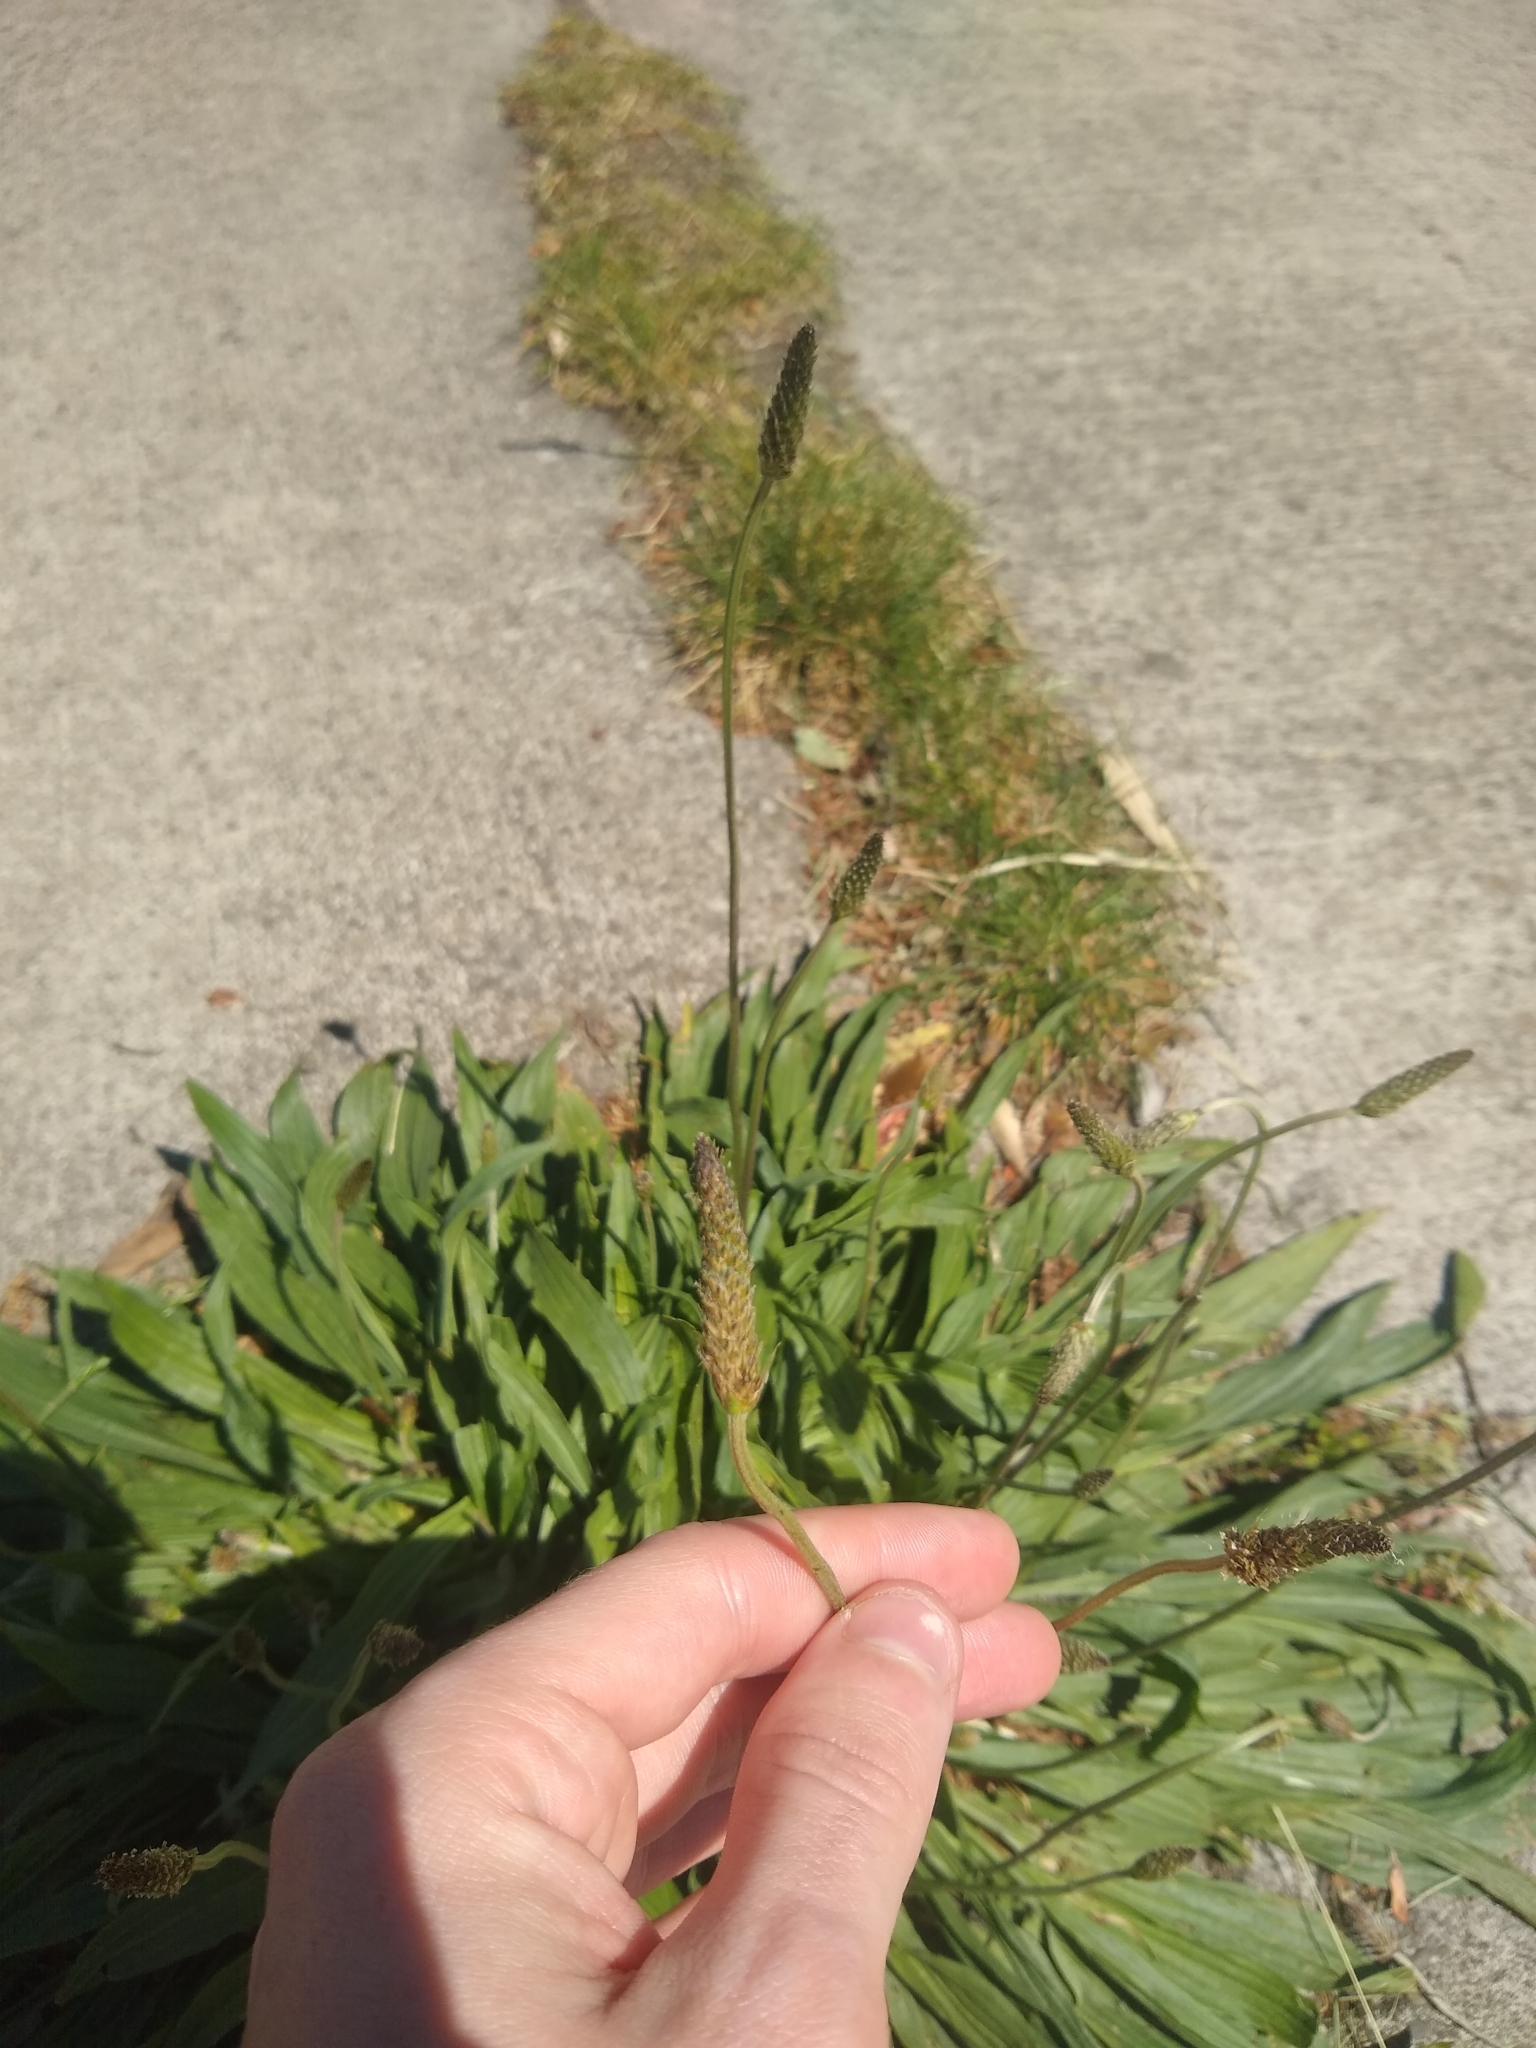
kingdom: Plantae
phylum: Tracheophyta
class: Magnoliopsida
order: Lamiales
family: Plantaginaceae
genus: Plantago
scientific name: Plantago lanceolata
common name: Ribwort plantain
